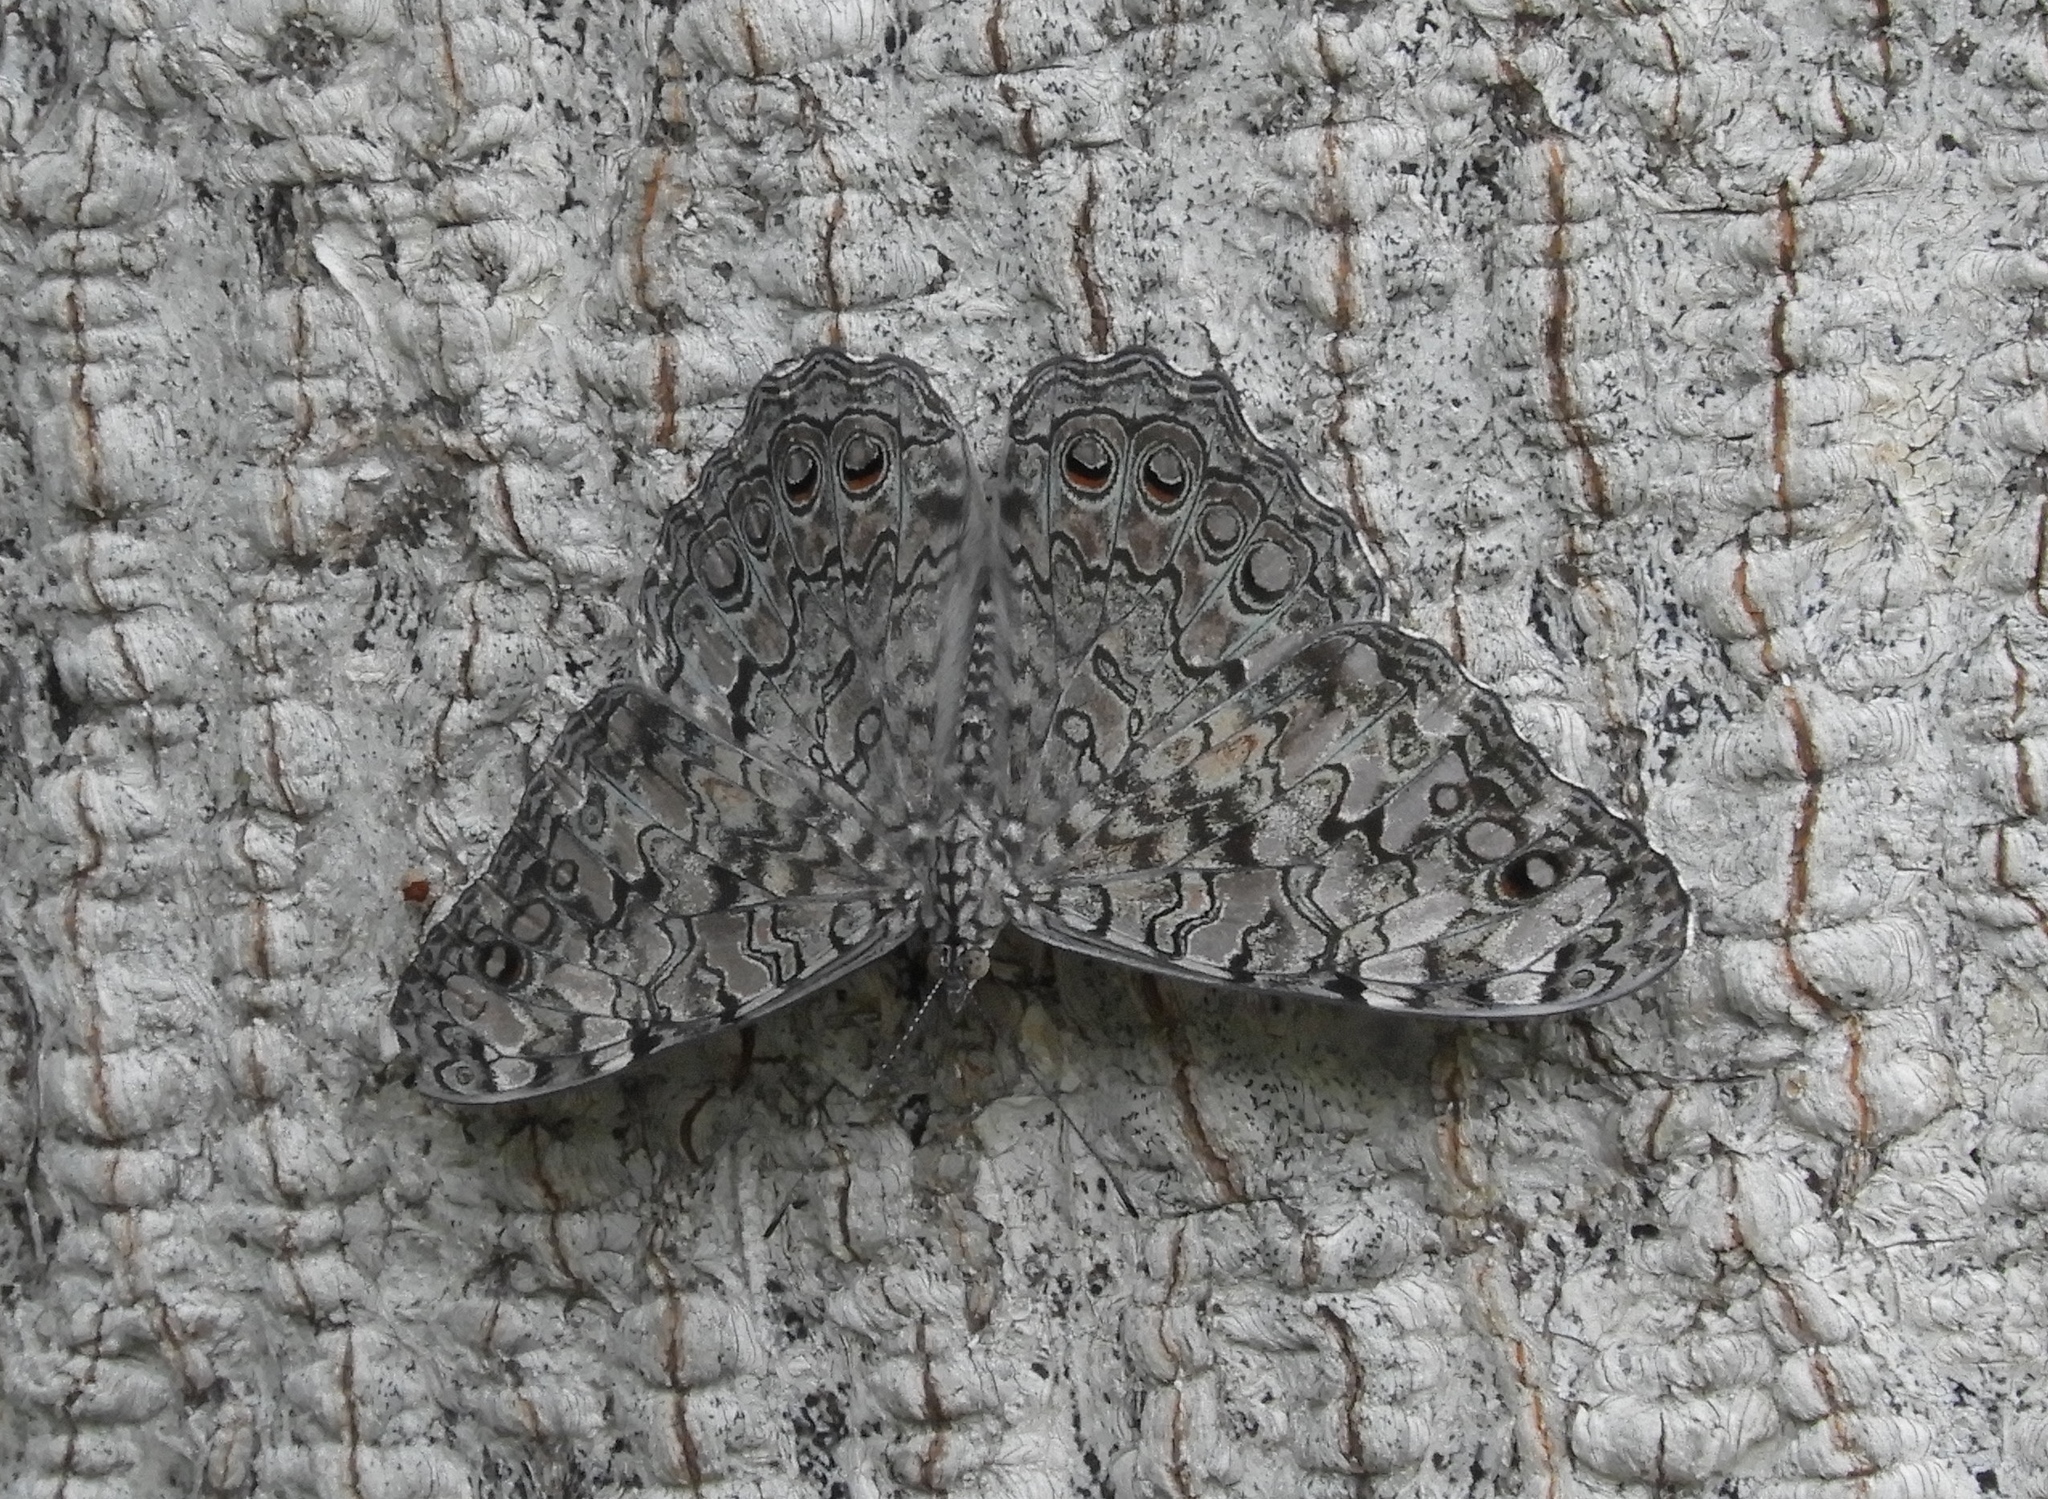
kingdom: Animalia
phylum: Arthropoda
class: Insecta
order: Lepidoptera
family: Nymphalidae
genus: Hamadryas
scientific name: Hamadryas februa
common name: Gray cracker
